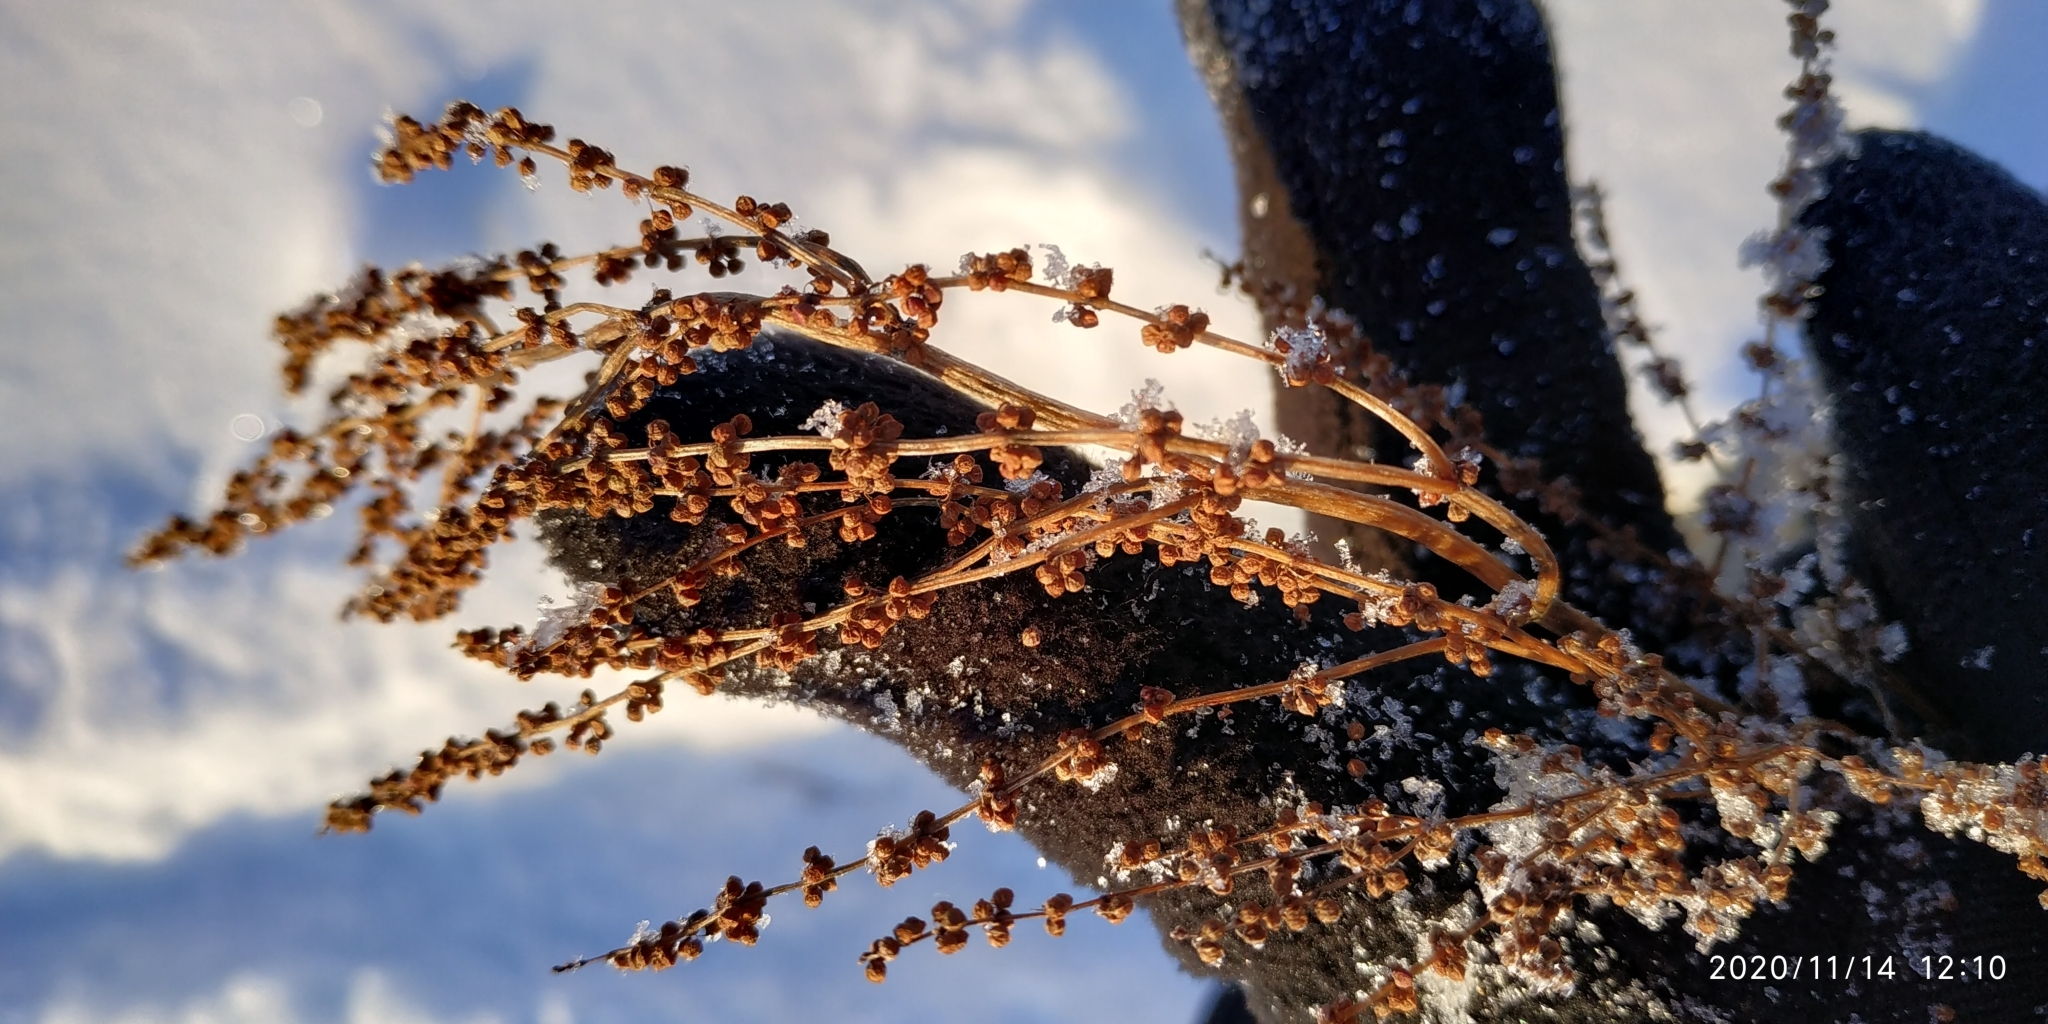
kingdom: Plantae
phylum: Tracheophyta
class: Magnoliopsida
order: Caryophyllales
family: Polygonaceae
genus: Rumex
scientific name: Rumex acetosella
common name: Common sheep sorrel
